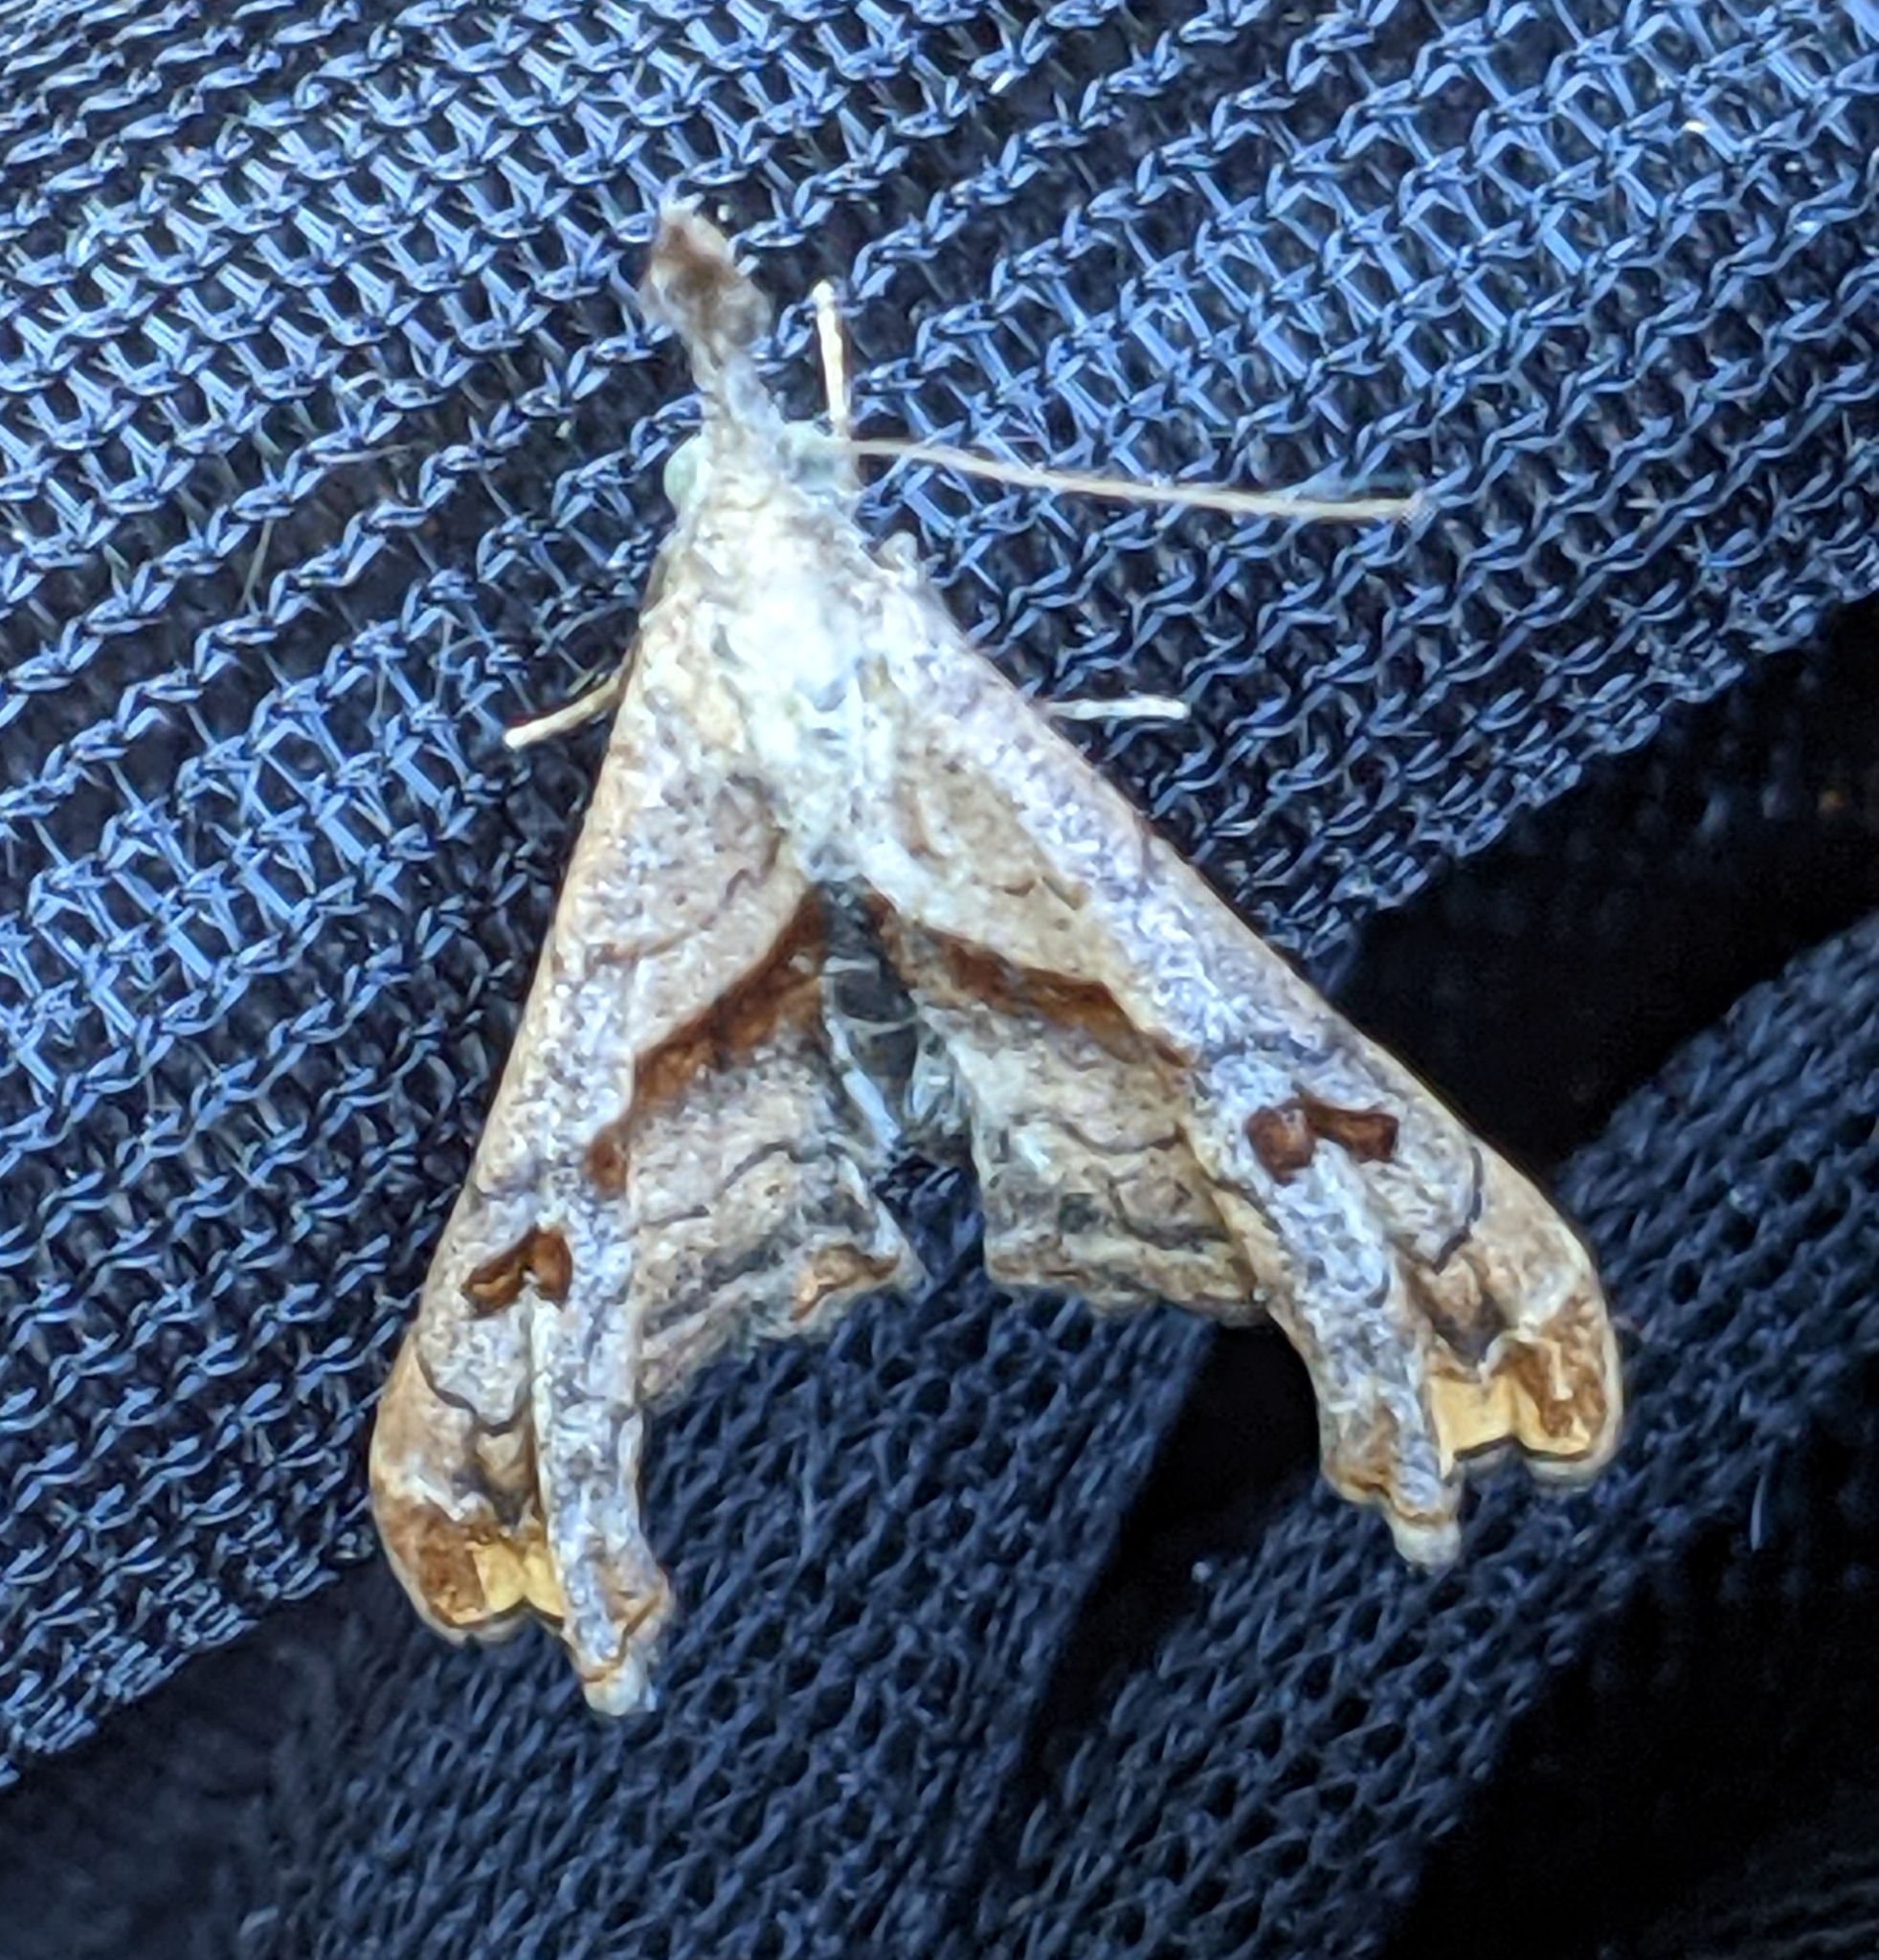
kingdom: Animalia
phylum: Arthropoda
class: Insecta
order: Lepidoptera
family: Erebidae
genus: Palthis
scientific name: Palthis angulalis
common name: Dark-spotted palthis moth
